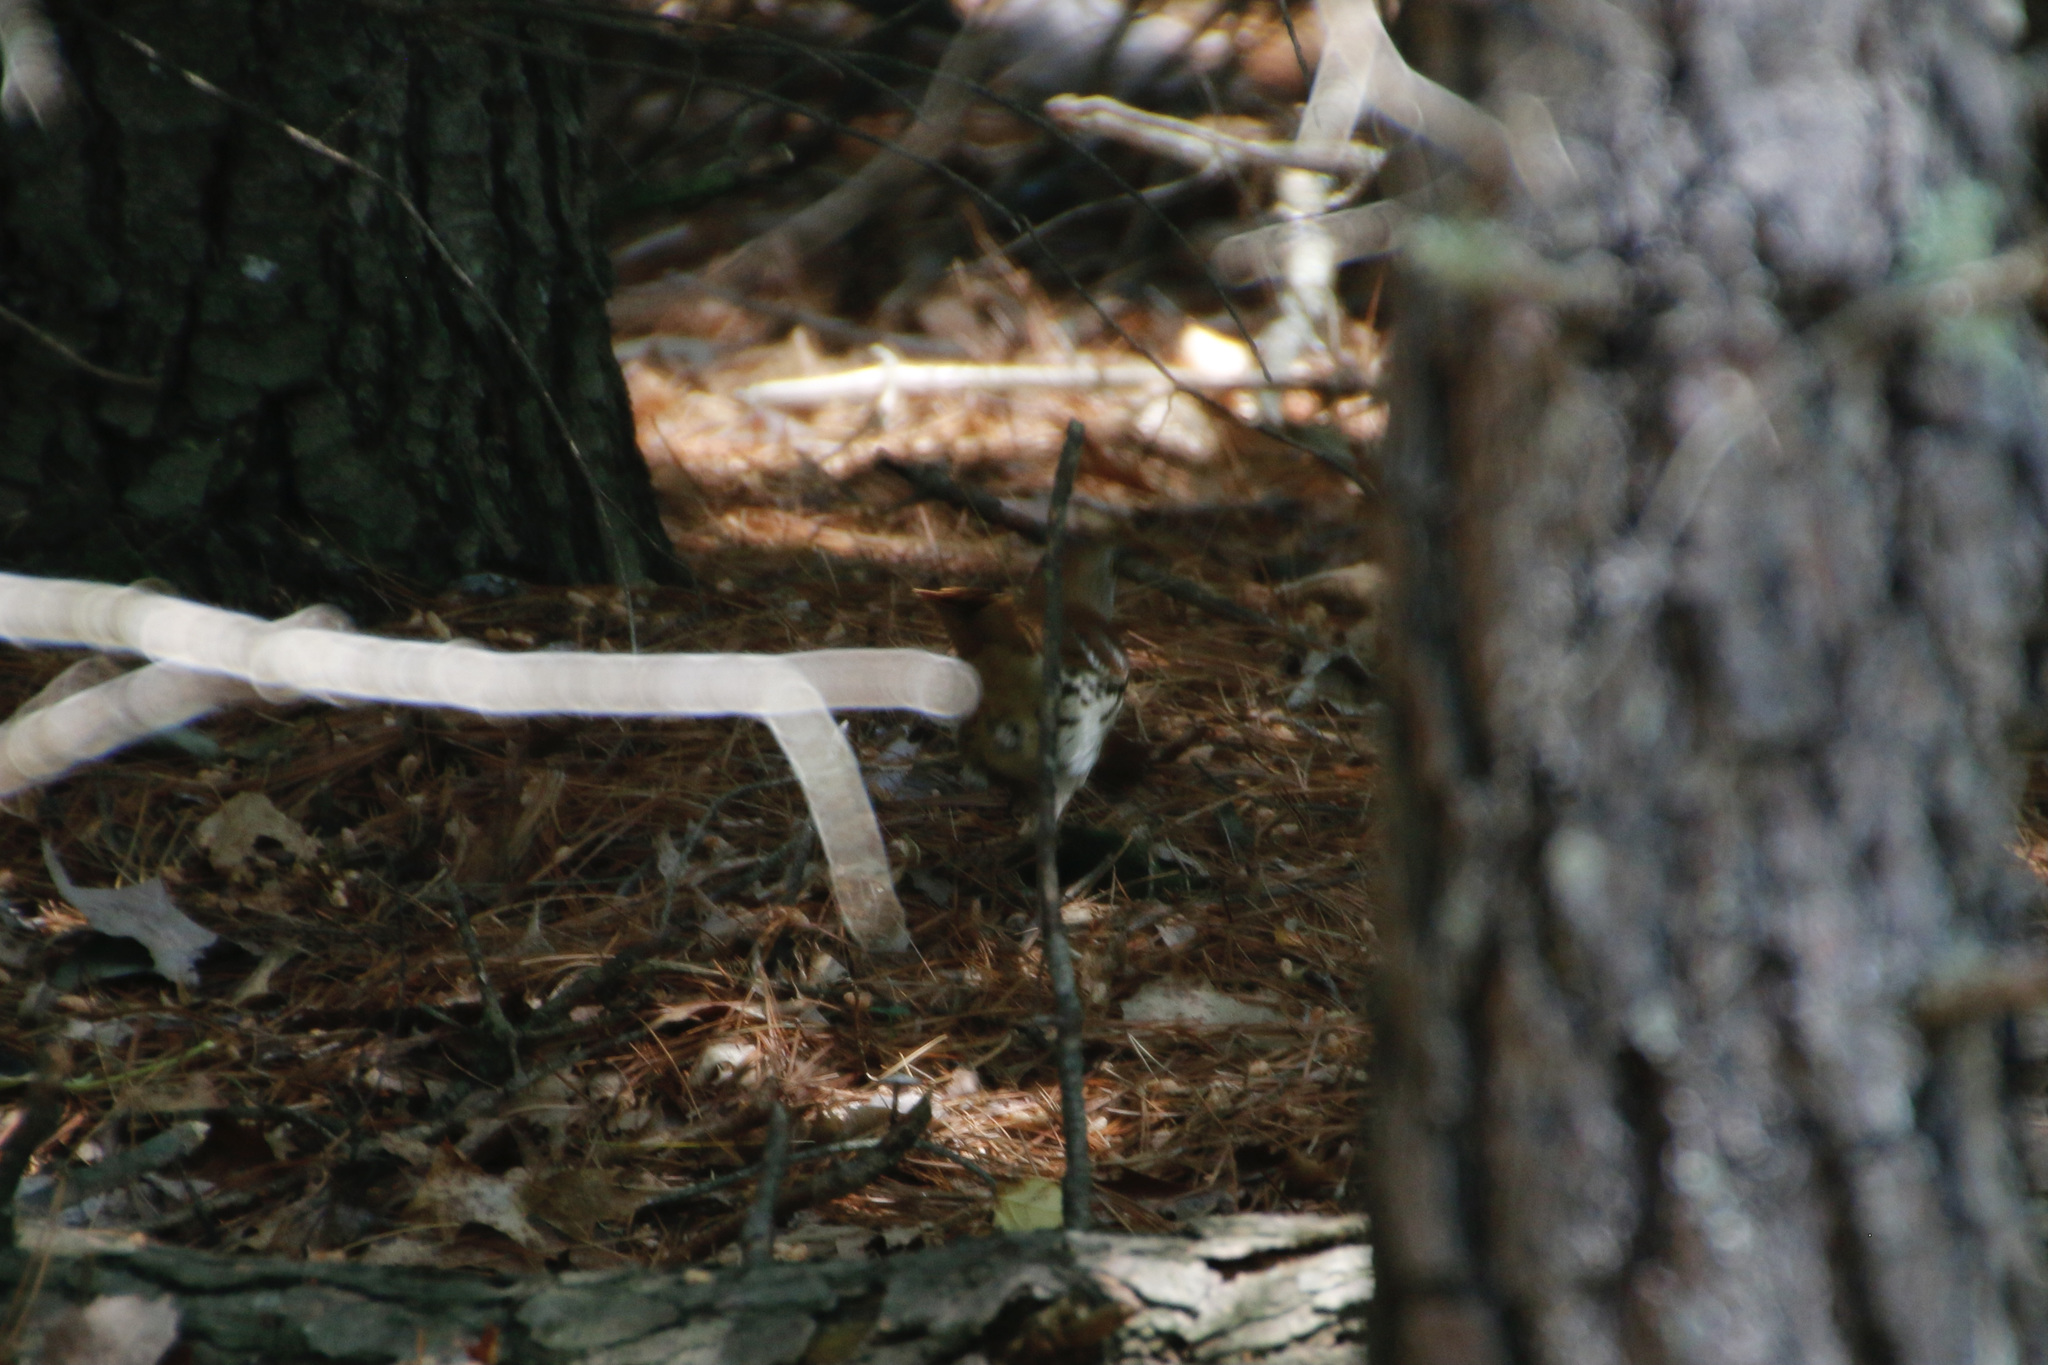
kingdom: Animalia
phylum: Chordata
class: Aves
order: Passeriformes
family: Mimidae
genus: Toxostoma
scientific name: Toxostoma rufum
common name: Brown thrasher
